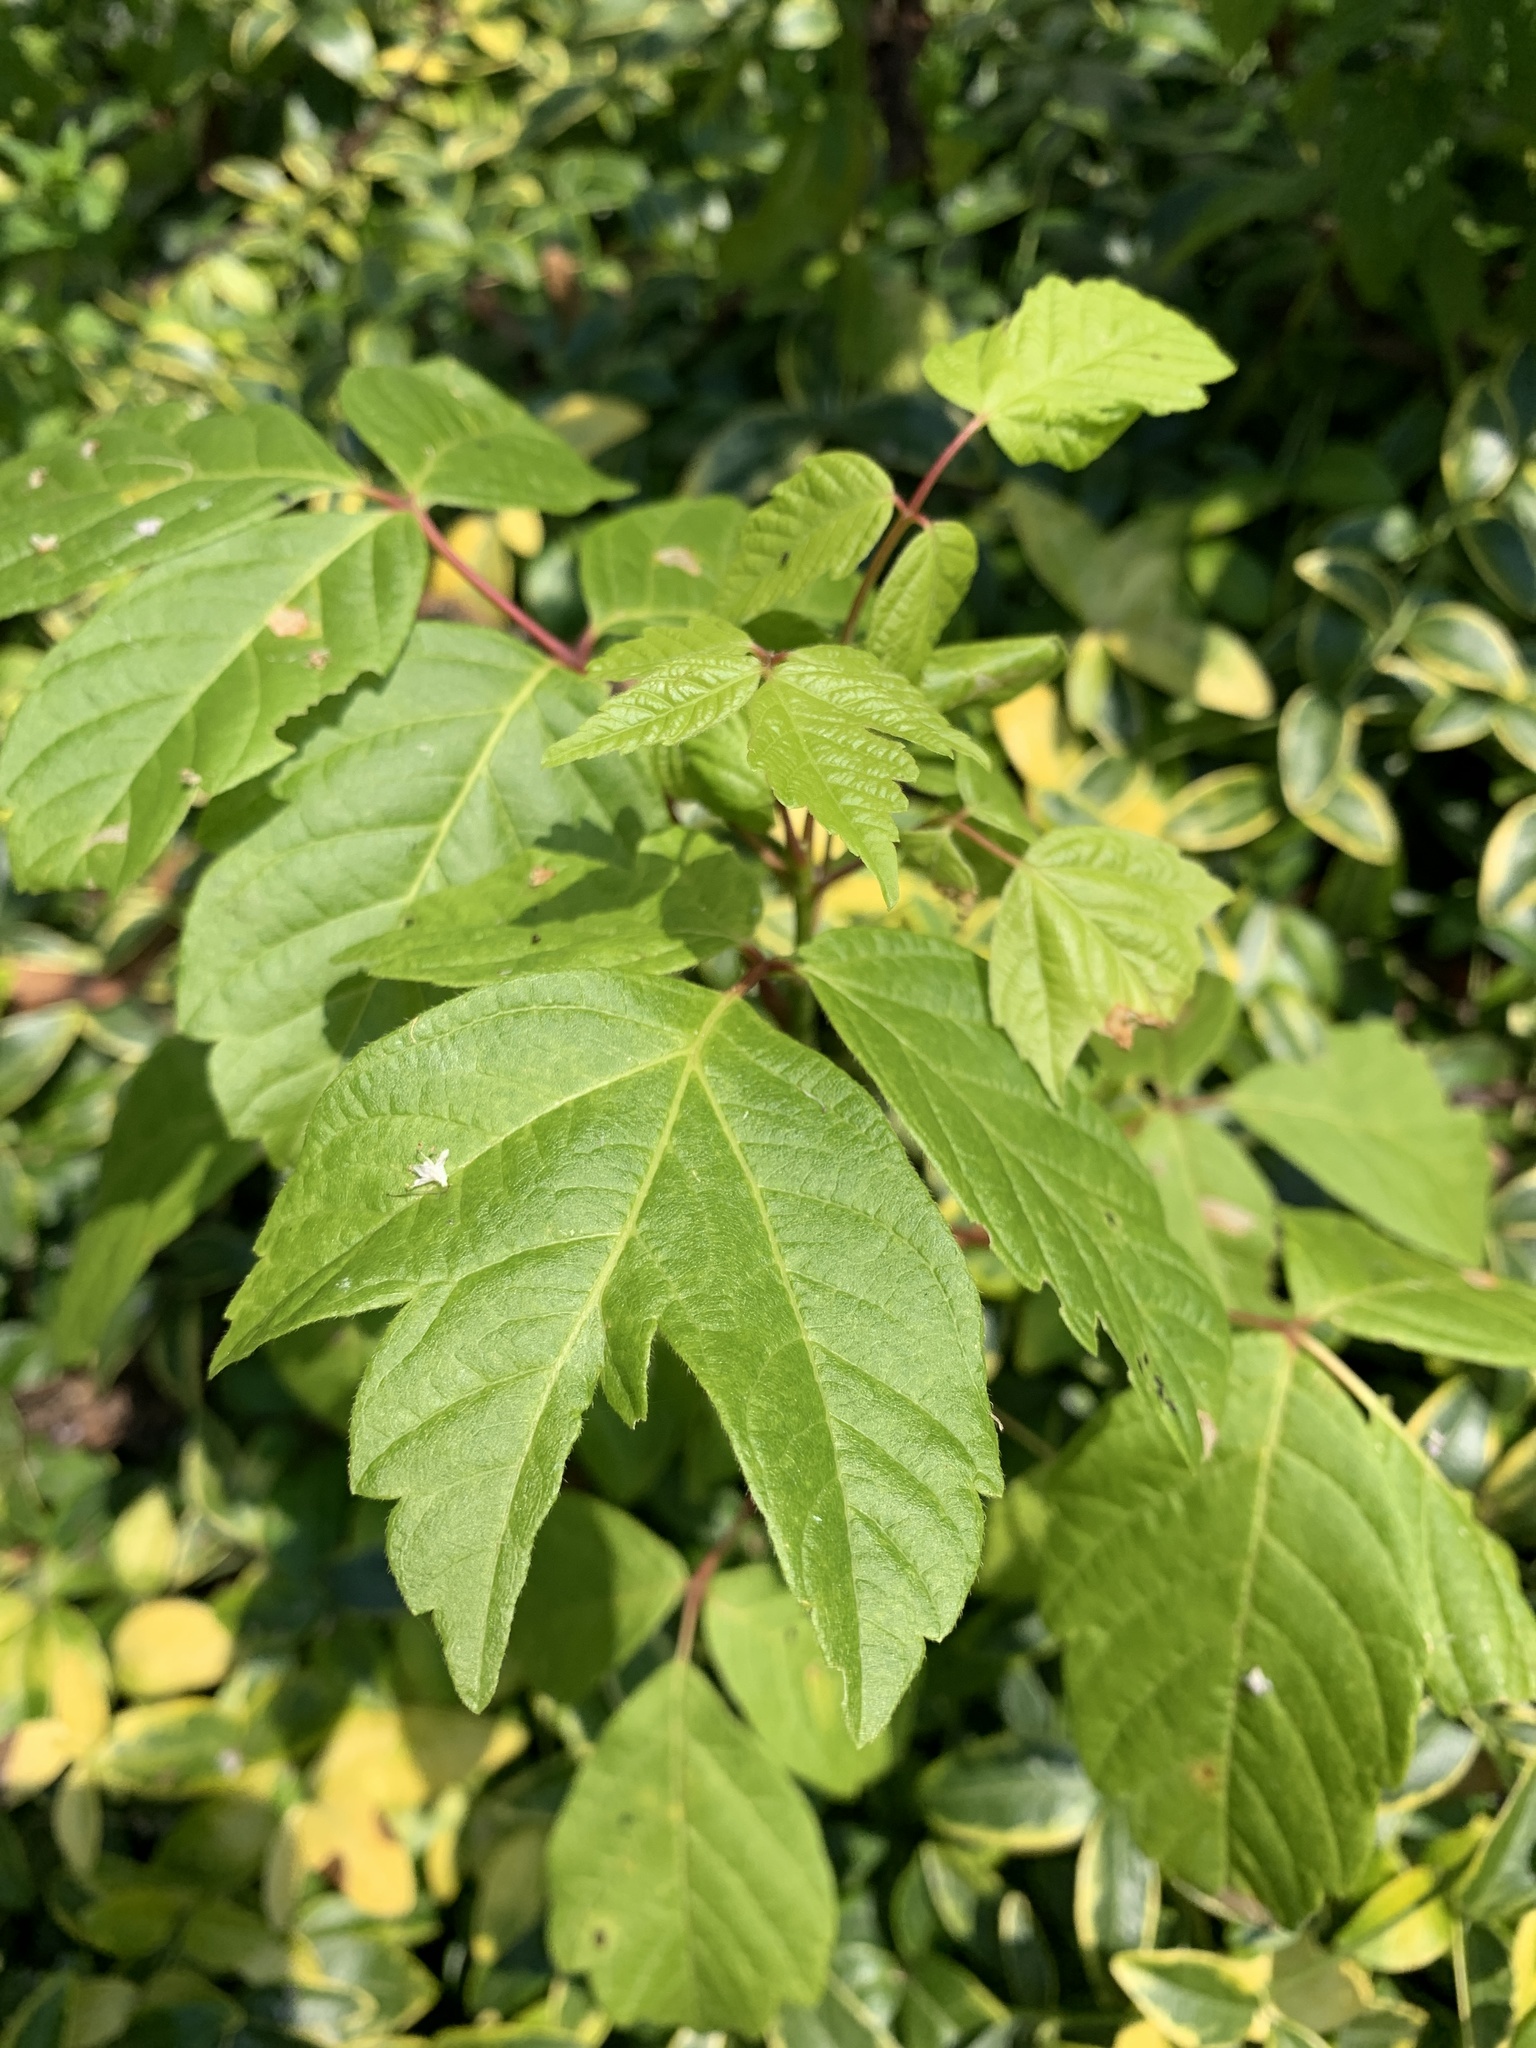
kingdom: Plantae
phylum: Tracheophyta
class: Magnoliopsida
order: Sapindales
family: Sapindaceae
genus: Acer
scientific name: Acer negundo
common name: Ashleaf maple
